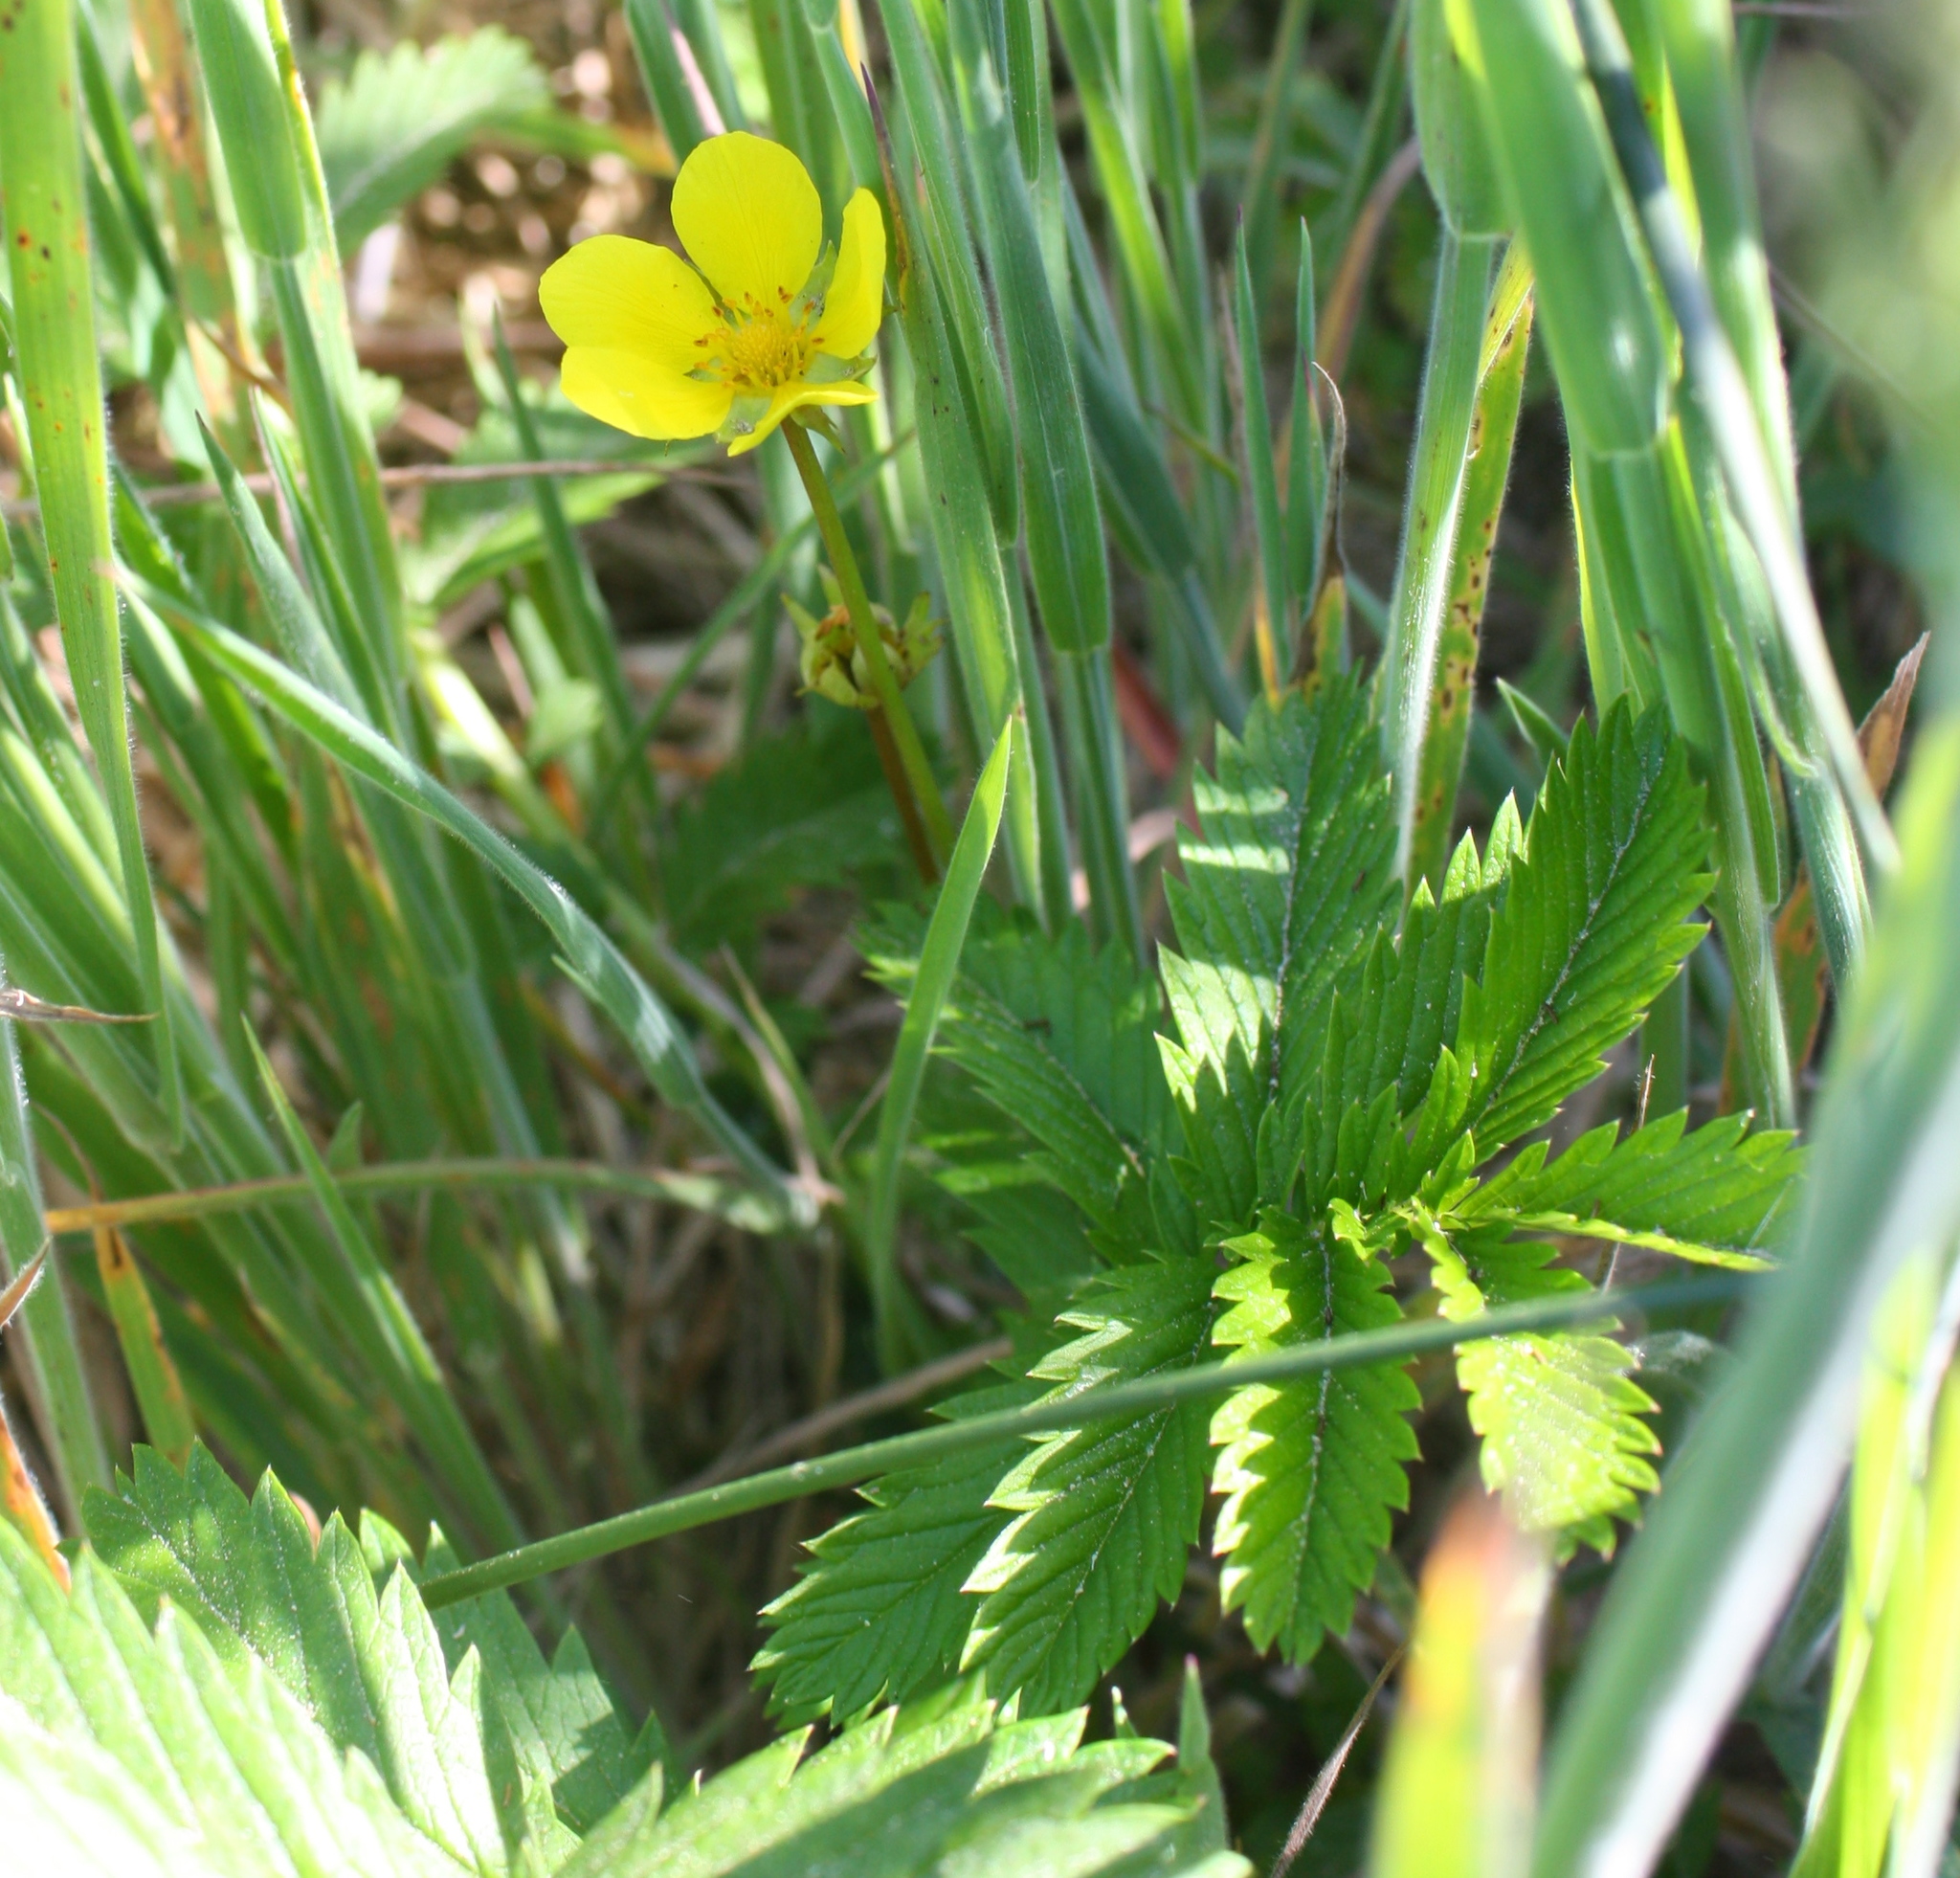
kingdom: Plantae
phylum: Tracheophyta
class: Magnoliopsida
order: Rosales
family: Rosaceae
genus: Argentina
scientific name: Argentina anserina
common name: Common silverweed
